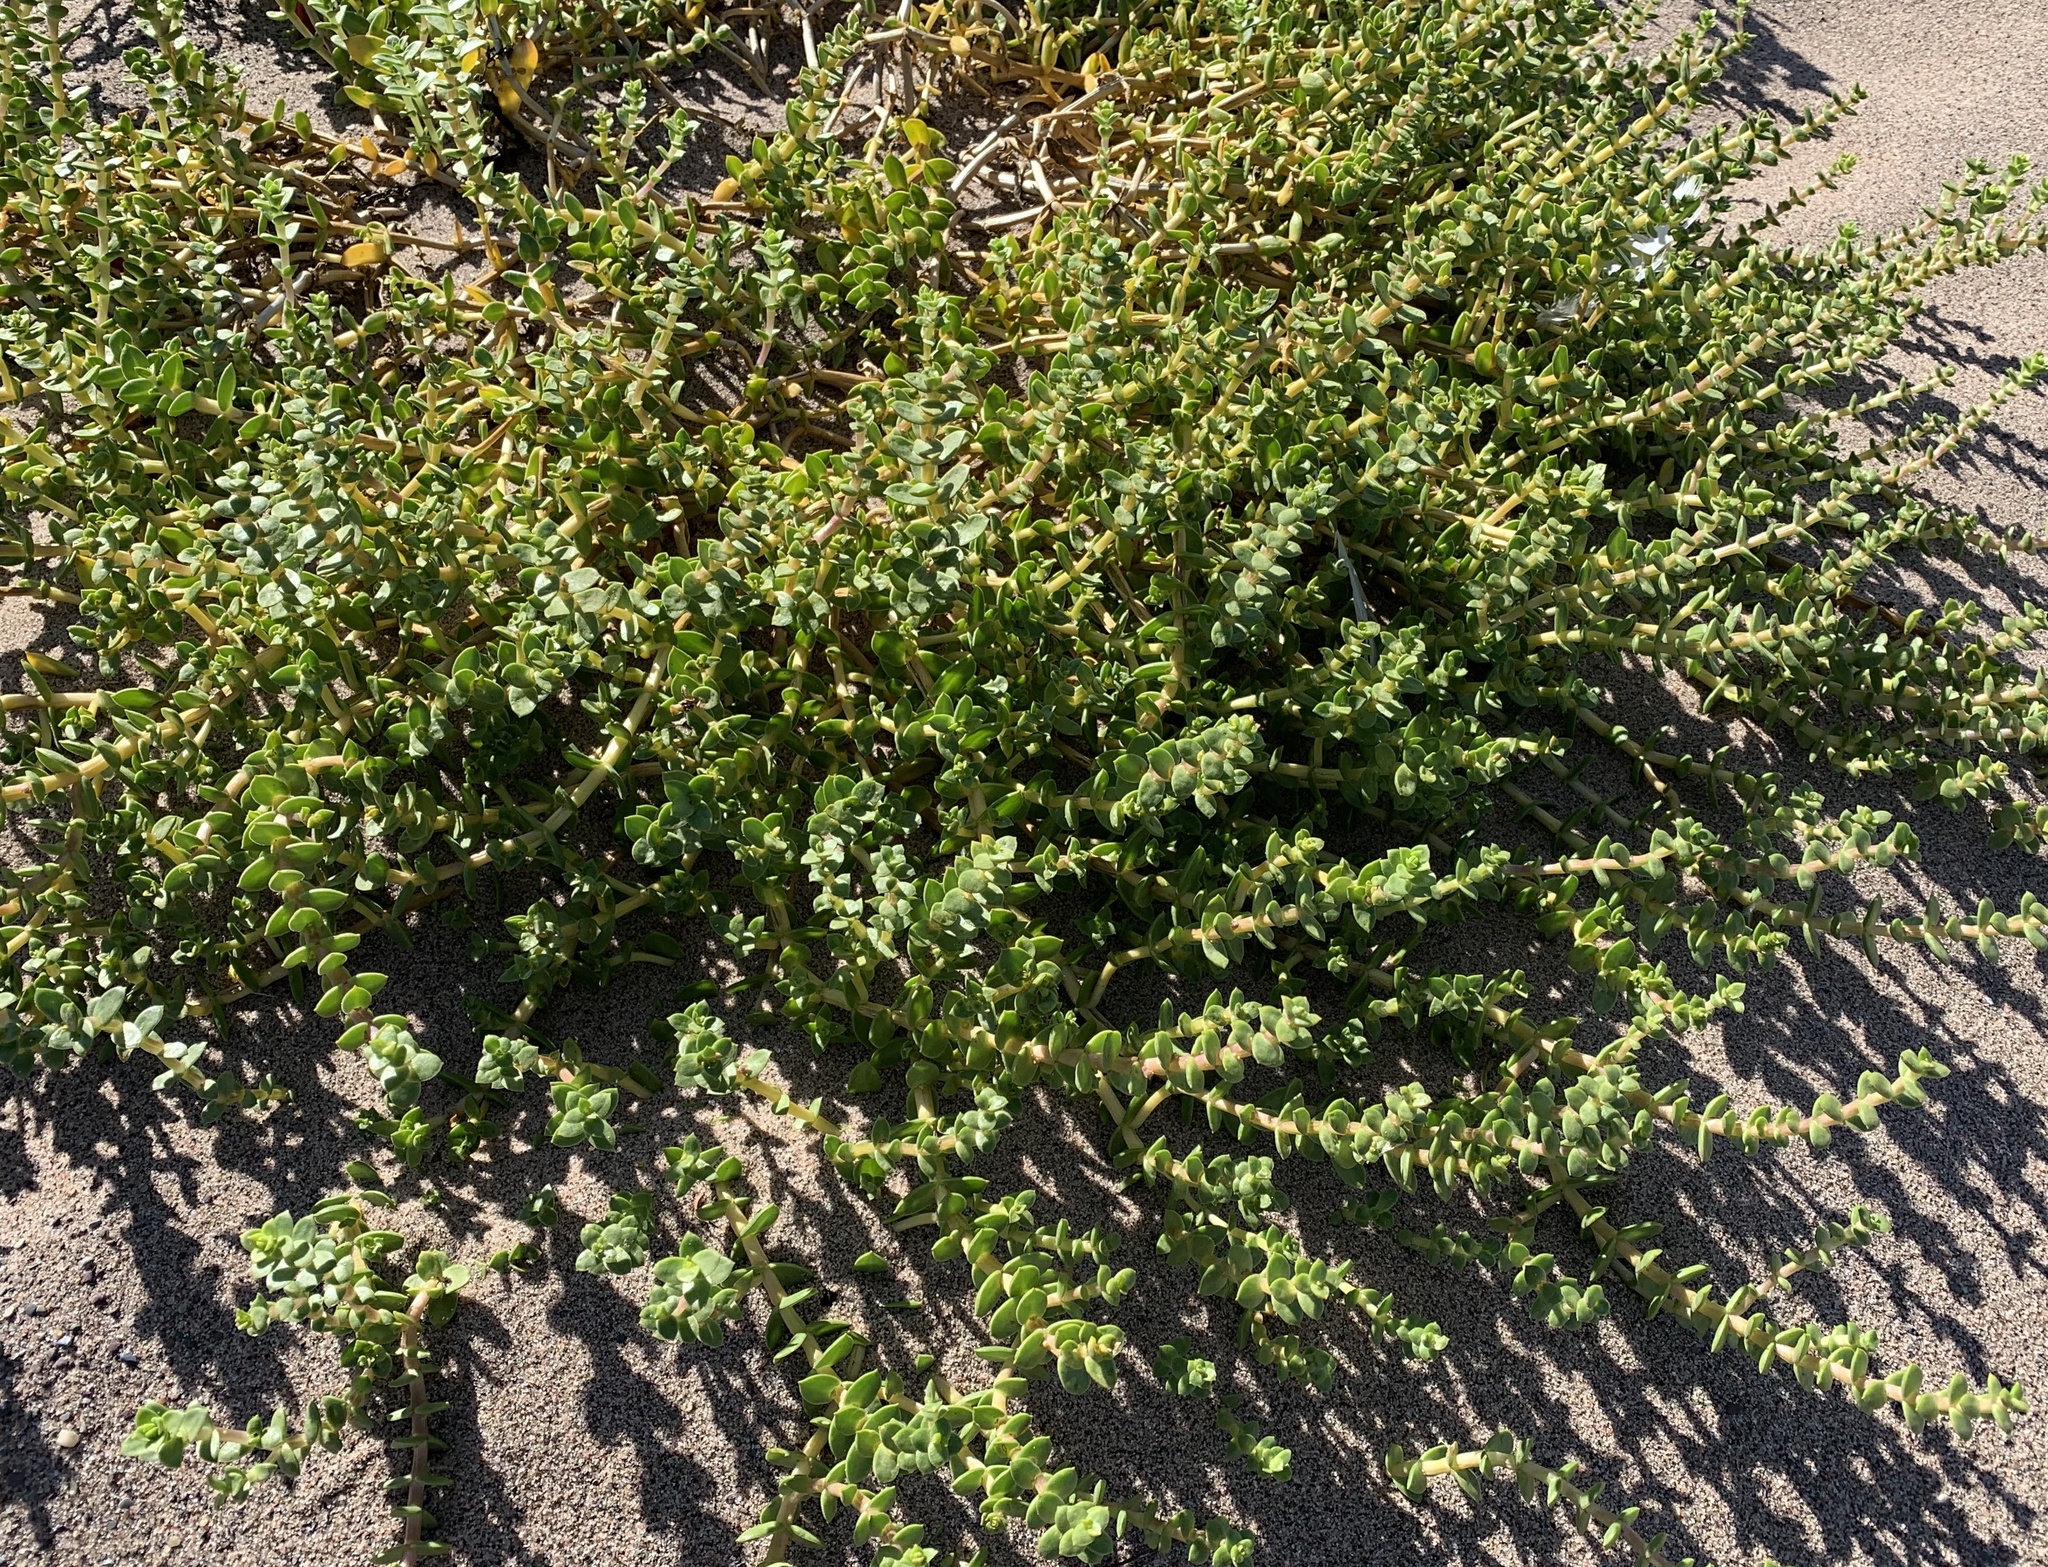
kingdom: Plantae
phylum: Tracheophyta
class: Magnoliopsida
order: Ericales
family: Primulaceae
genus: Lysimachia
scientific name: Lysimachia maritima
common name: Sea milkwort
